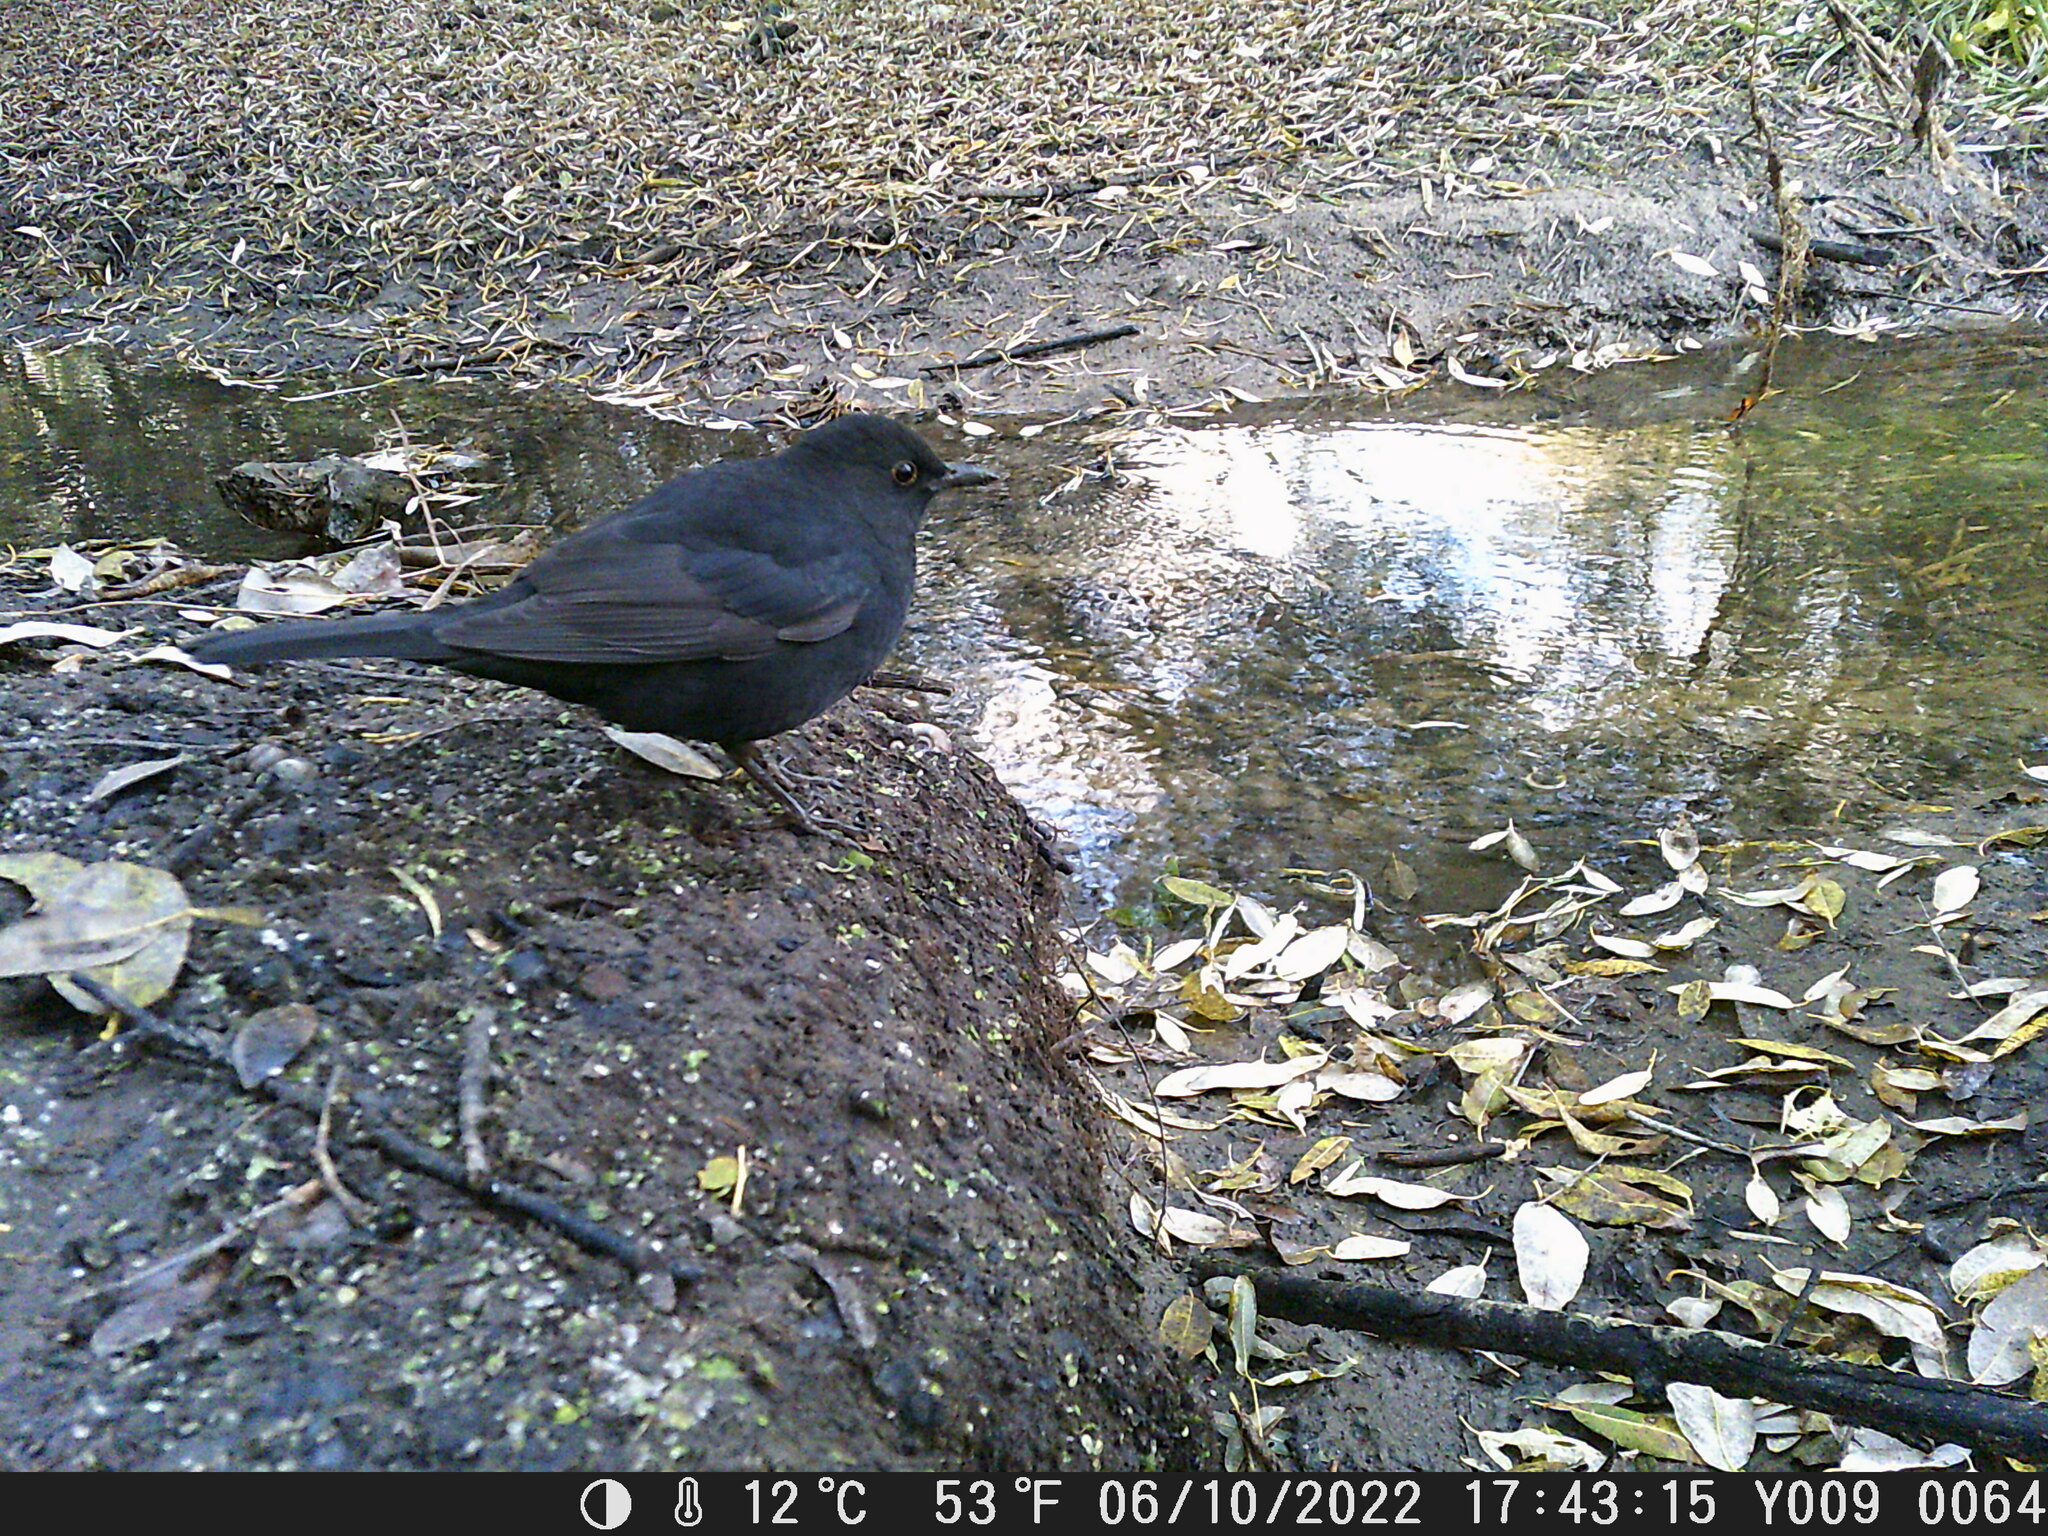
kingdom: Animalia
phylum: Chordata
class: Aves
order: Passeriformes
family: Turdidae
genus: Turdus
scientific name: Turdus merula
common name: Common blackbird
